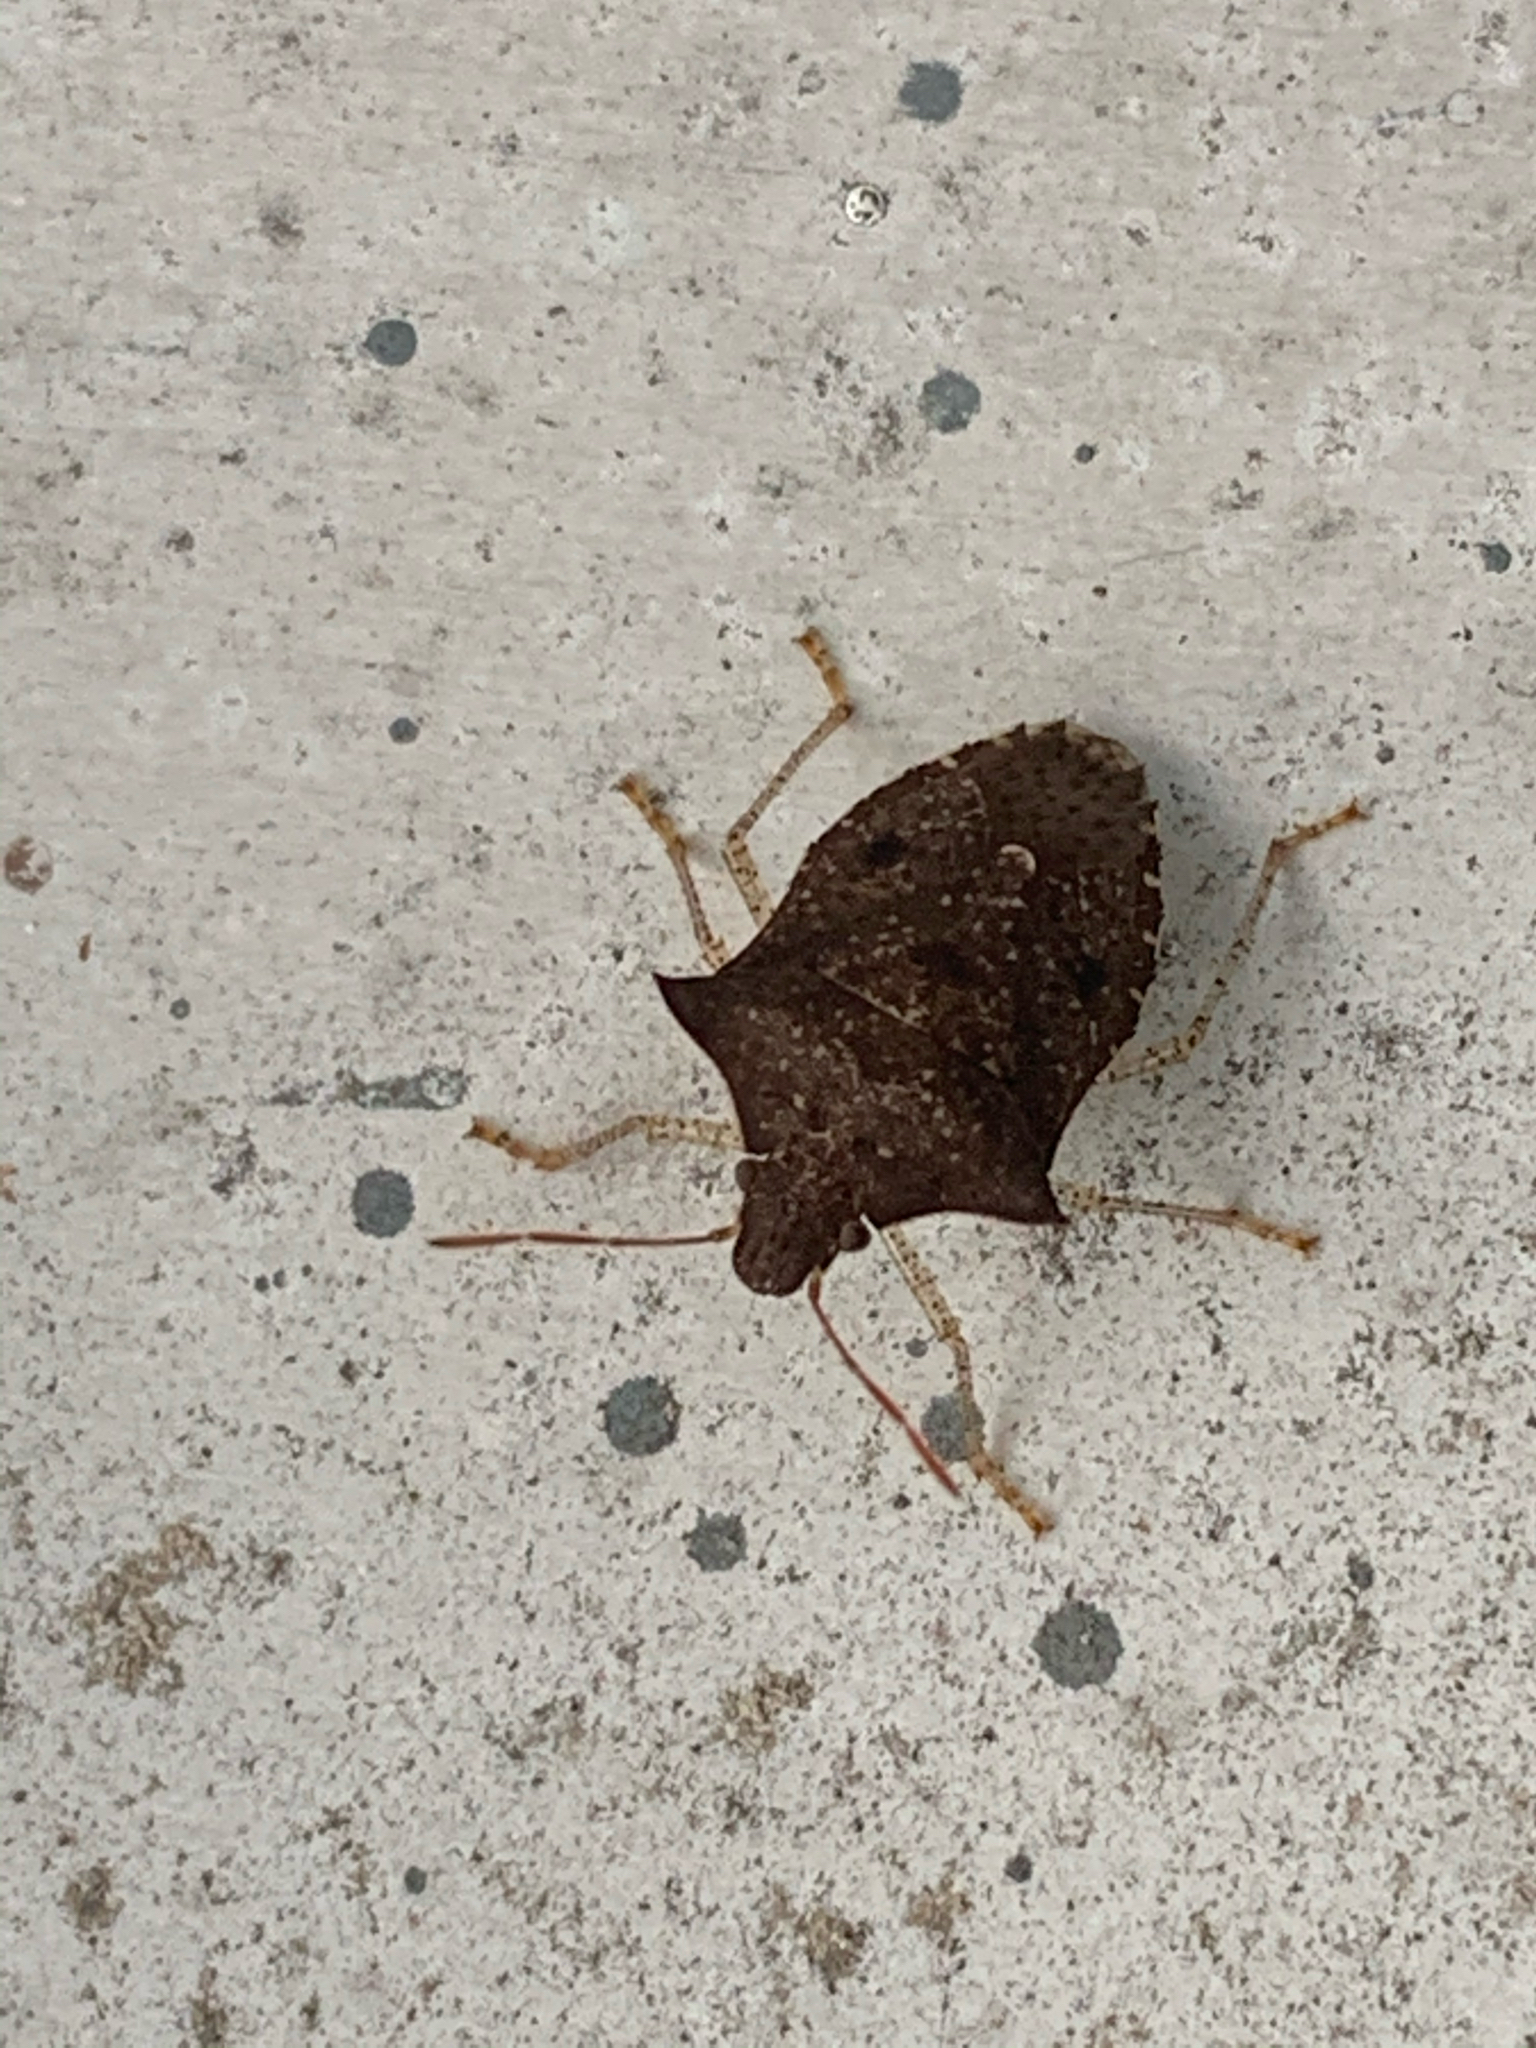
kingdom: Animalia
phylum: Arthropoda
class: Insecta
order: Hemiptera
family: Pentatomidae
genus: Euschistus
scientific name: Euschistus tristigmus
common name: Dusky stink bug
